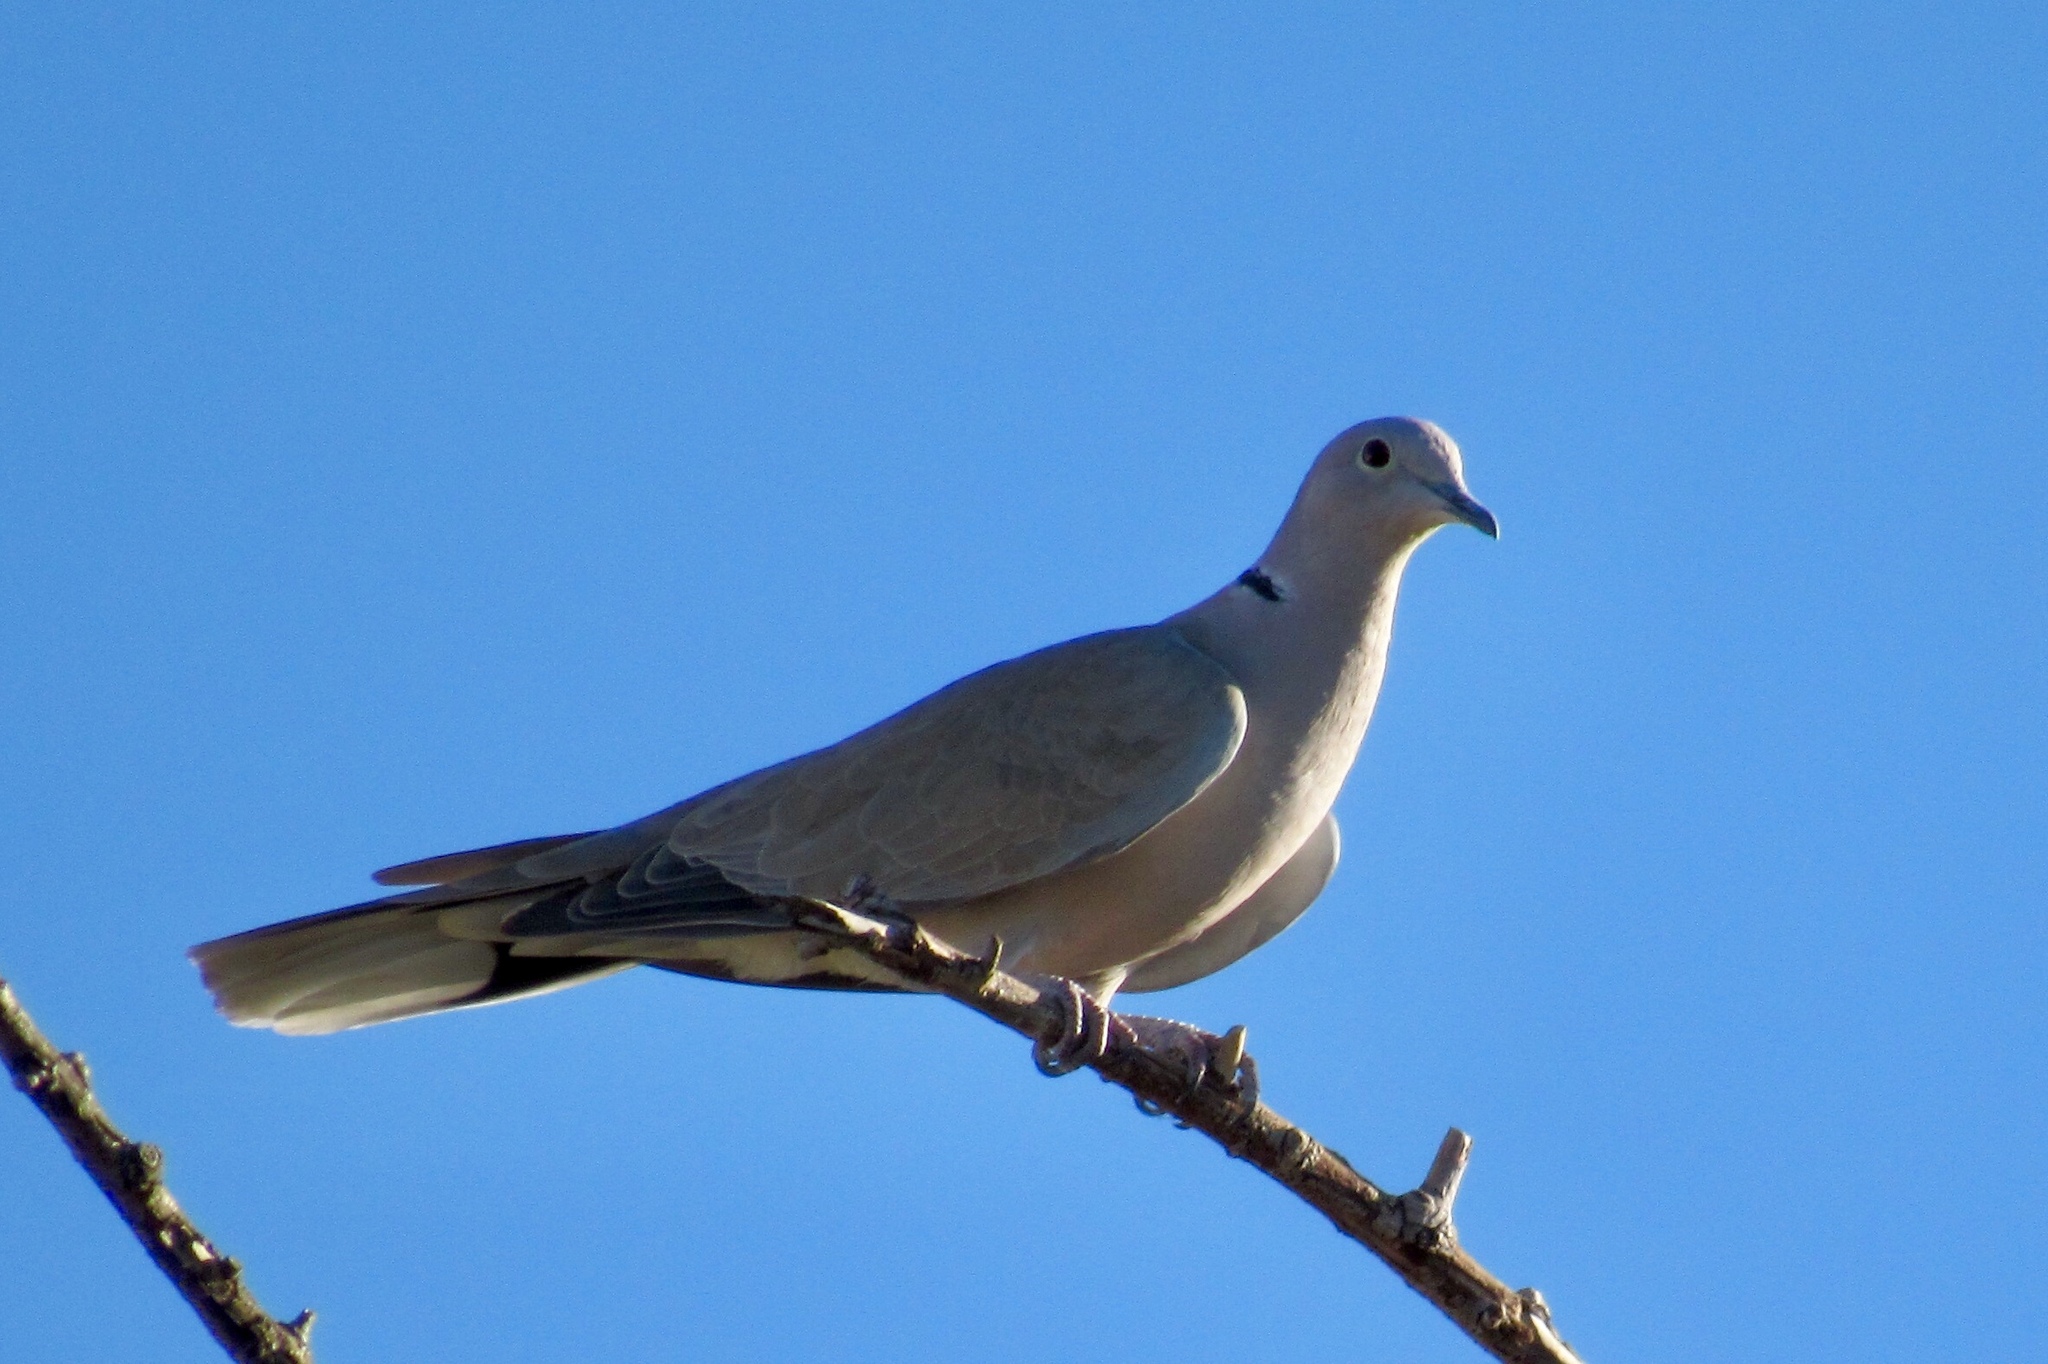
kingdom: Animalia
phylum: Chordata
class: Aves
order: Columbiformes
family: Columbidae
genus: Streptopelia
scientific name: Streptopelia decaocto
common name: Eurasian collared dove
